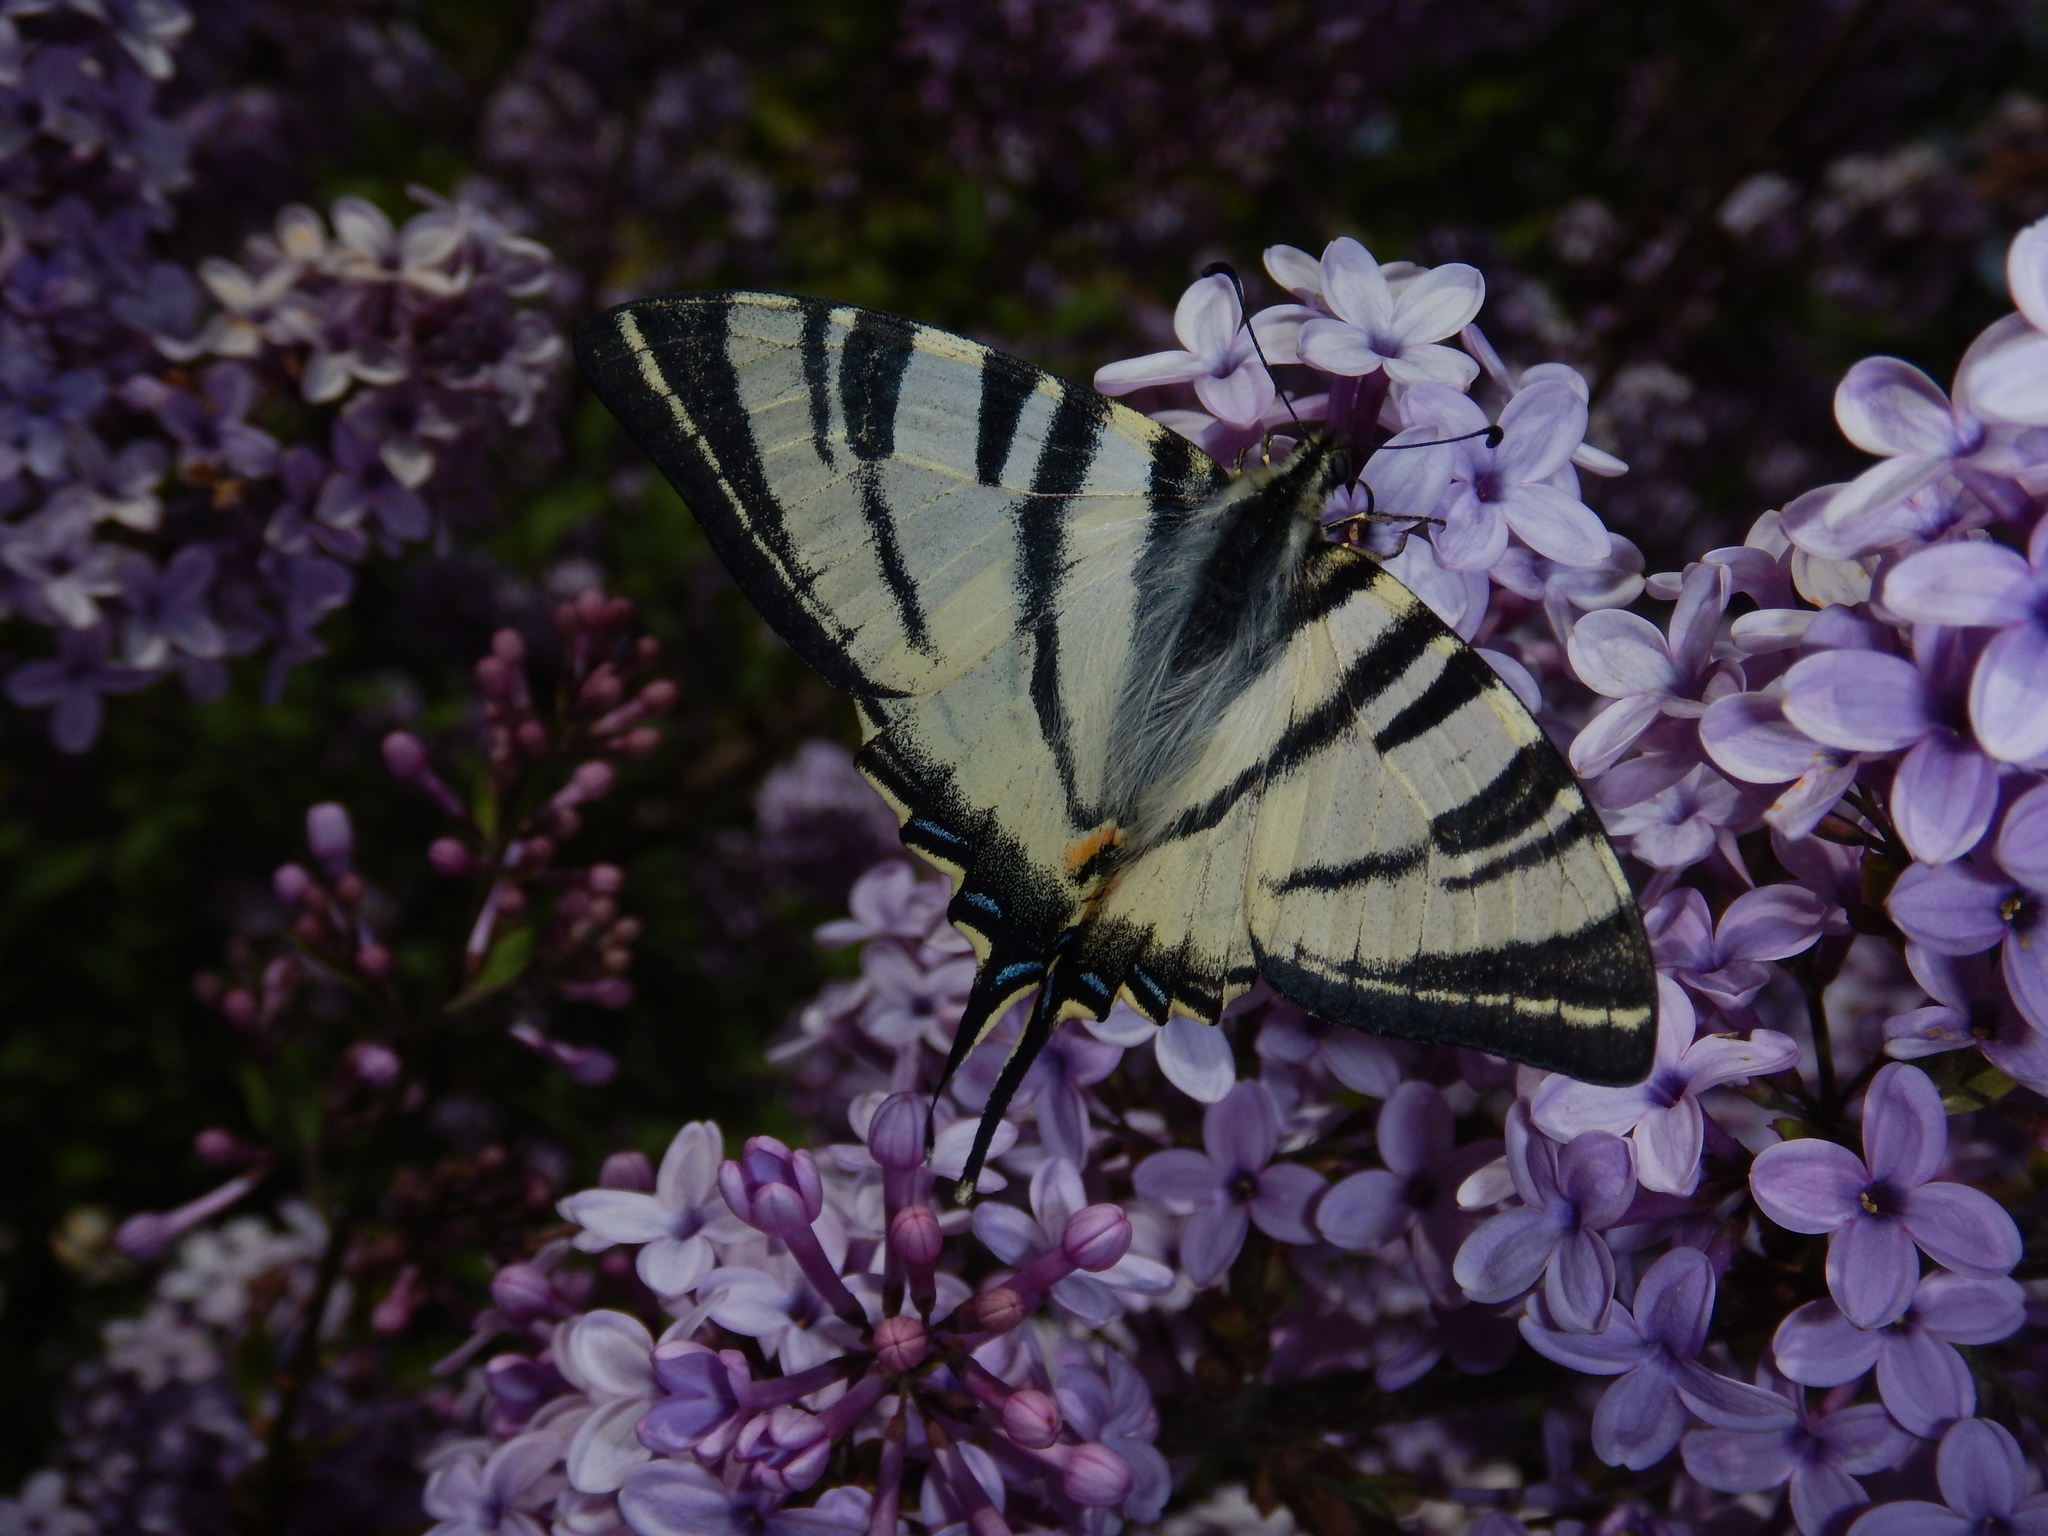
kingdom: Animalia
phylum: Arthropoda
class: Insecta
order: Lepidoptera
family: Papilionidae
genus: Iphiclides
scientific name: Iphiclides podalirius
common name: Scarce swallowtail
